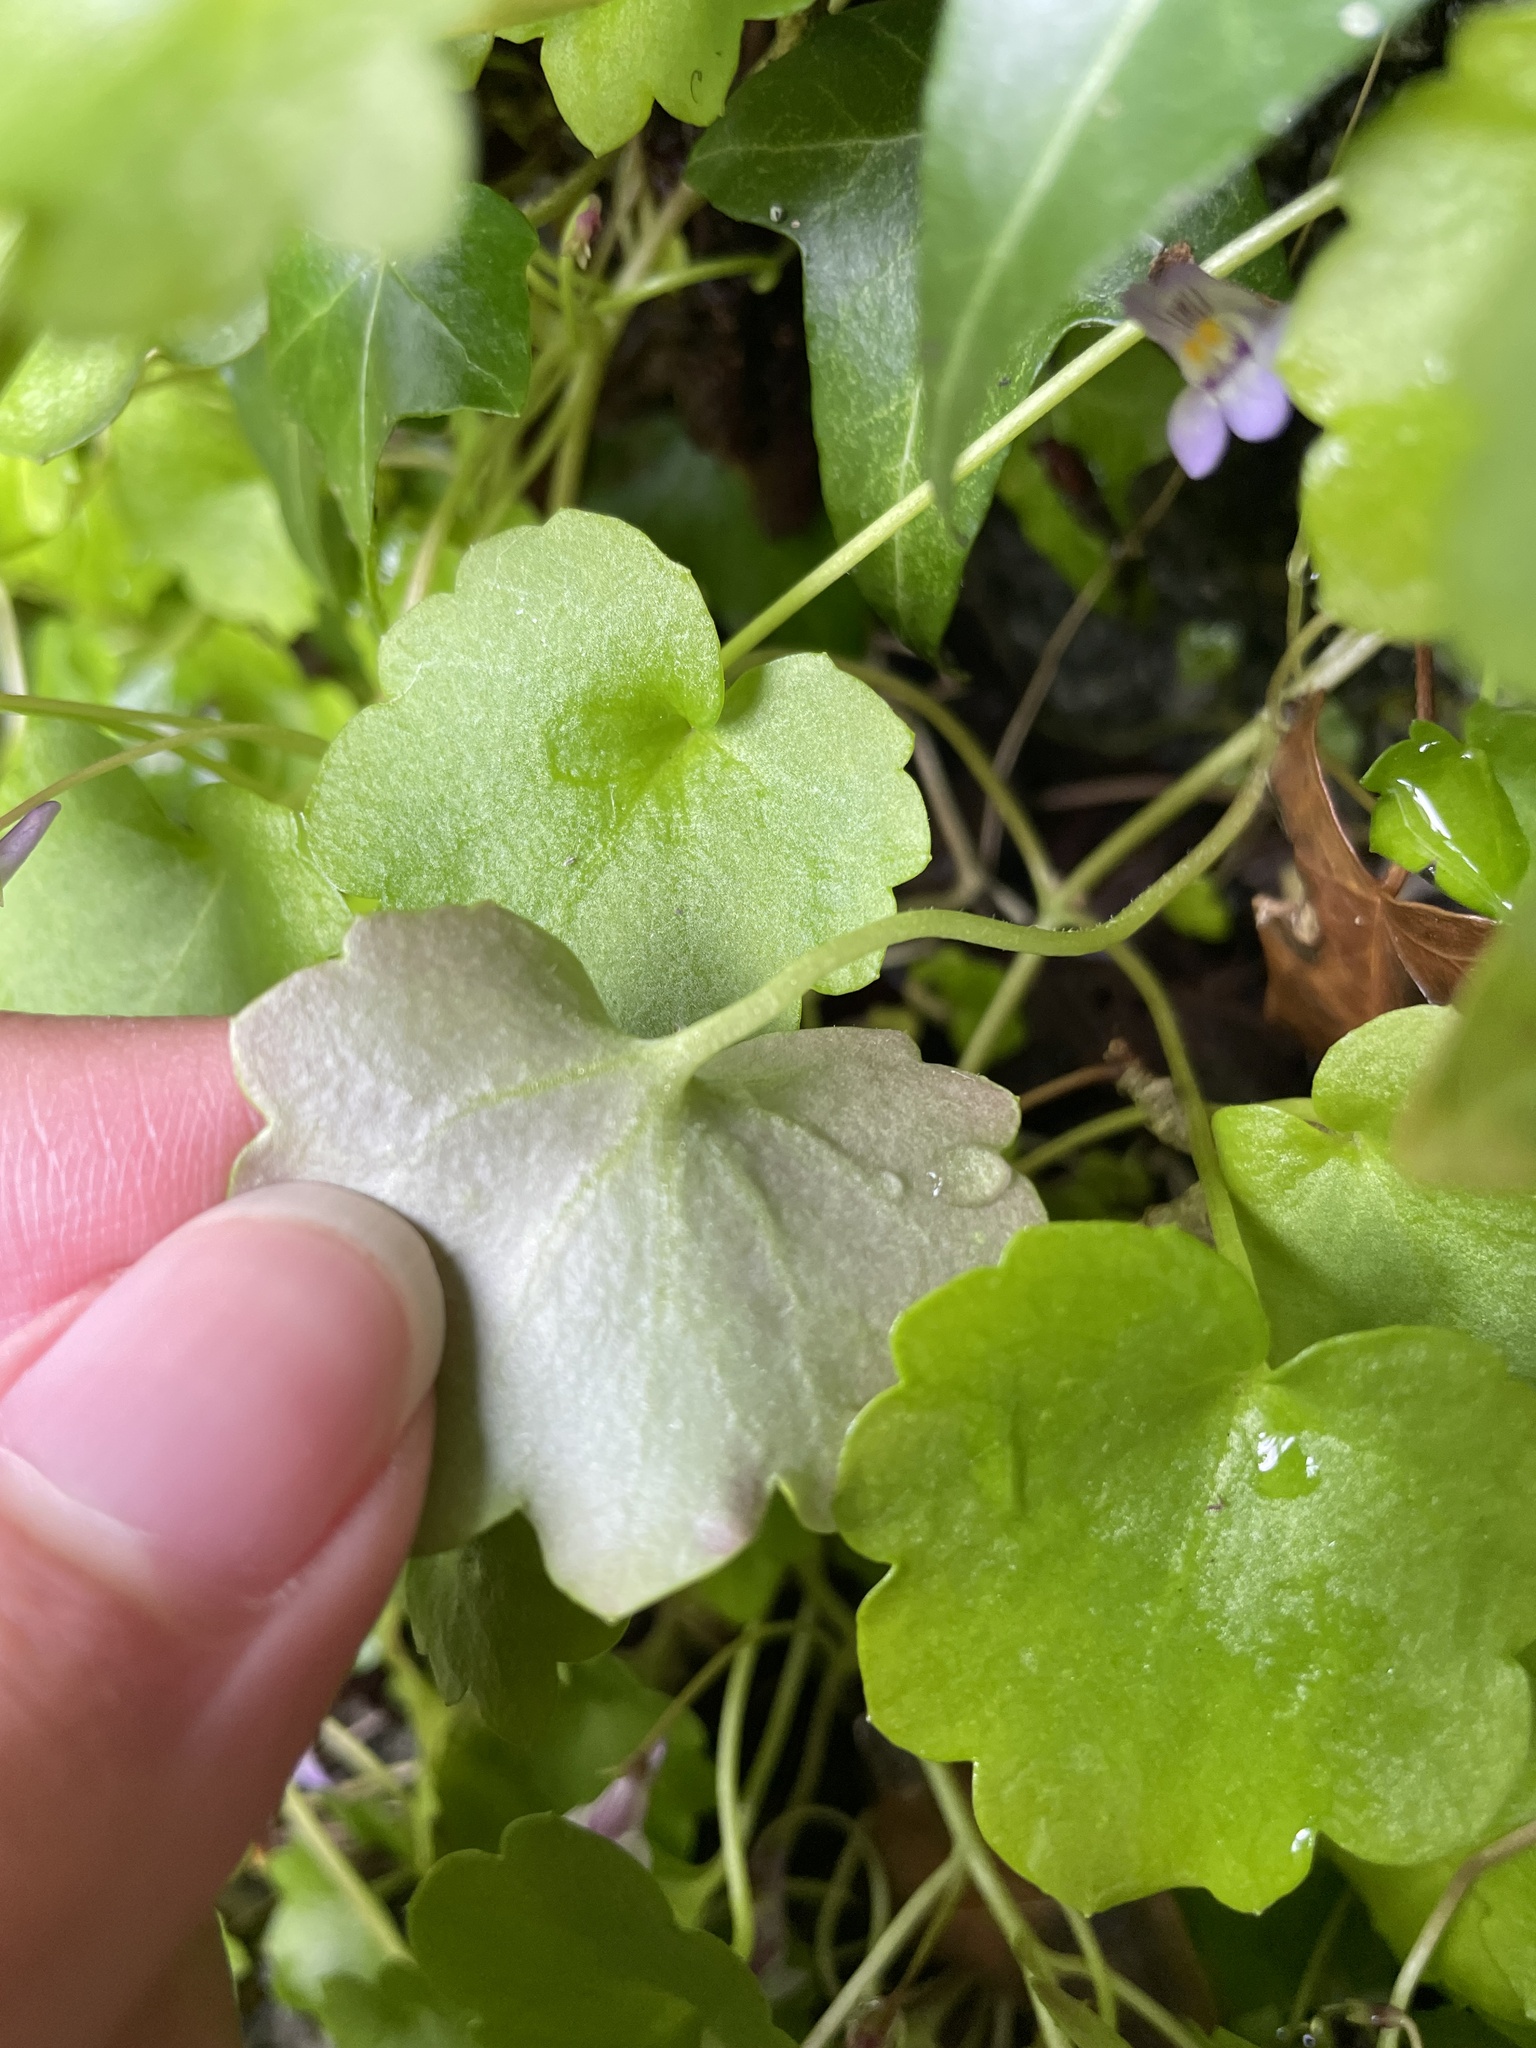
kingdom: Plantae
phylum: Tracheophyta
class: Magnoliopsida
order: Lamiales
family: Plantaginaceae
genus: Cymbalaria
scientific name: Cymbalaria muralis
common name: Ivy-leaved toadflax
